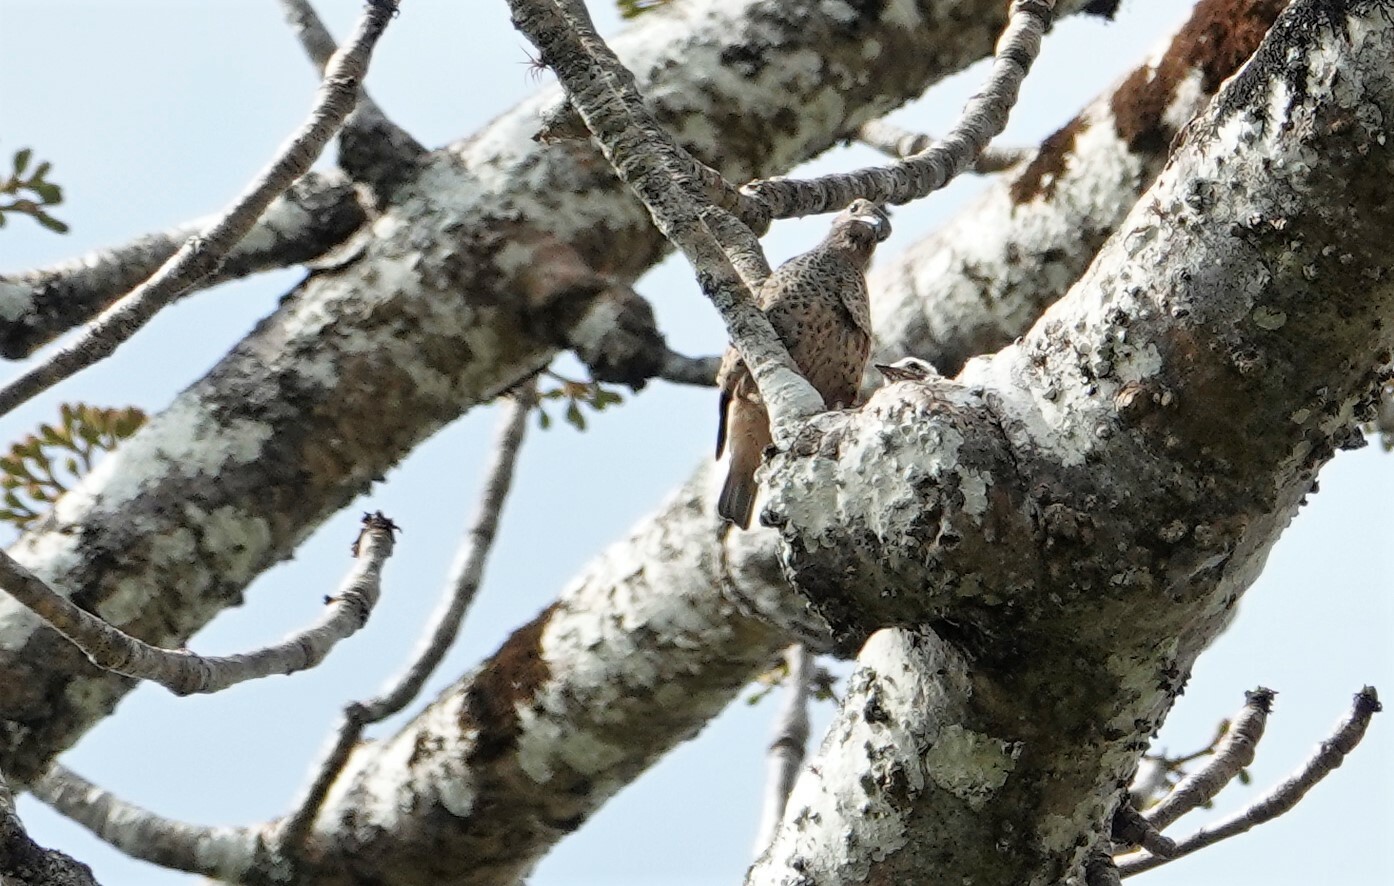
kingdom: Animalia
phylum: Chordata
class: Aves
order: Passeriformes
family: Cotingidae
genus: Cotinga
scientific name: Cotinga nattererii
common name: Blue cotinga
